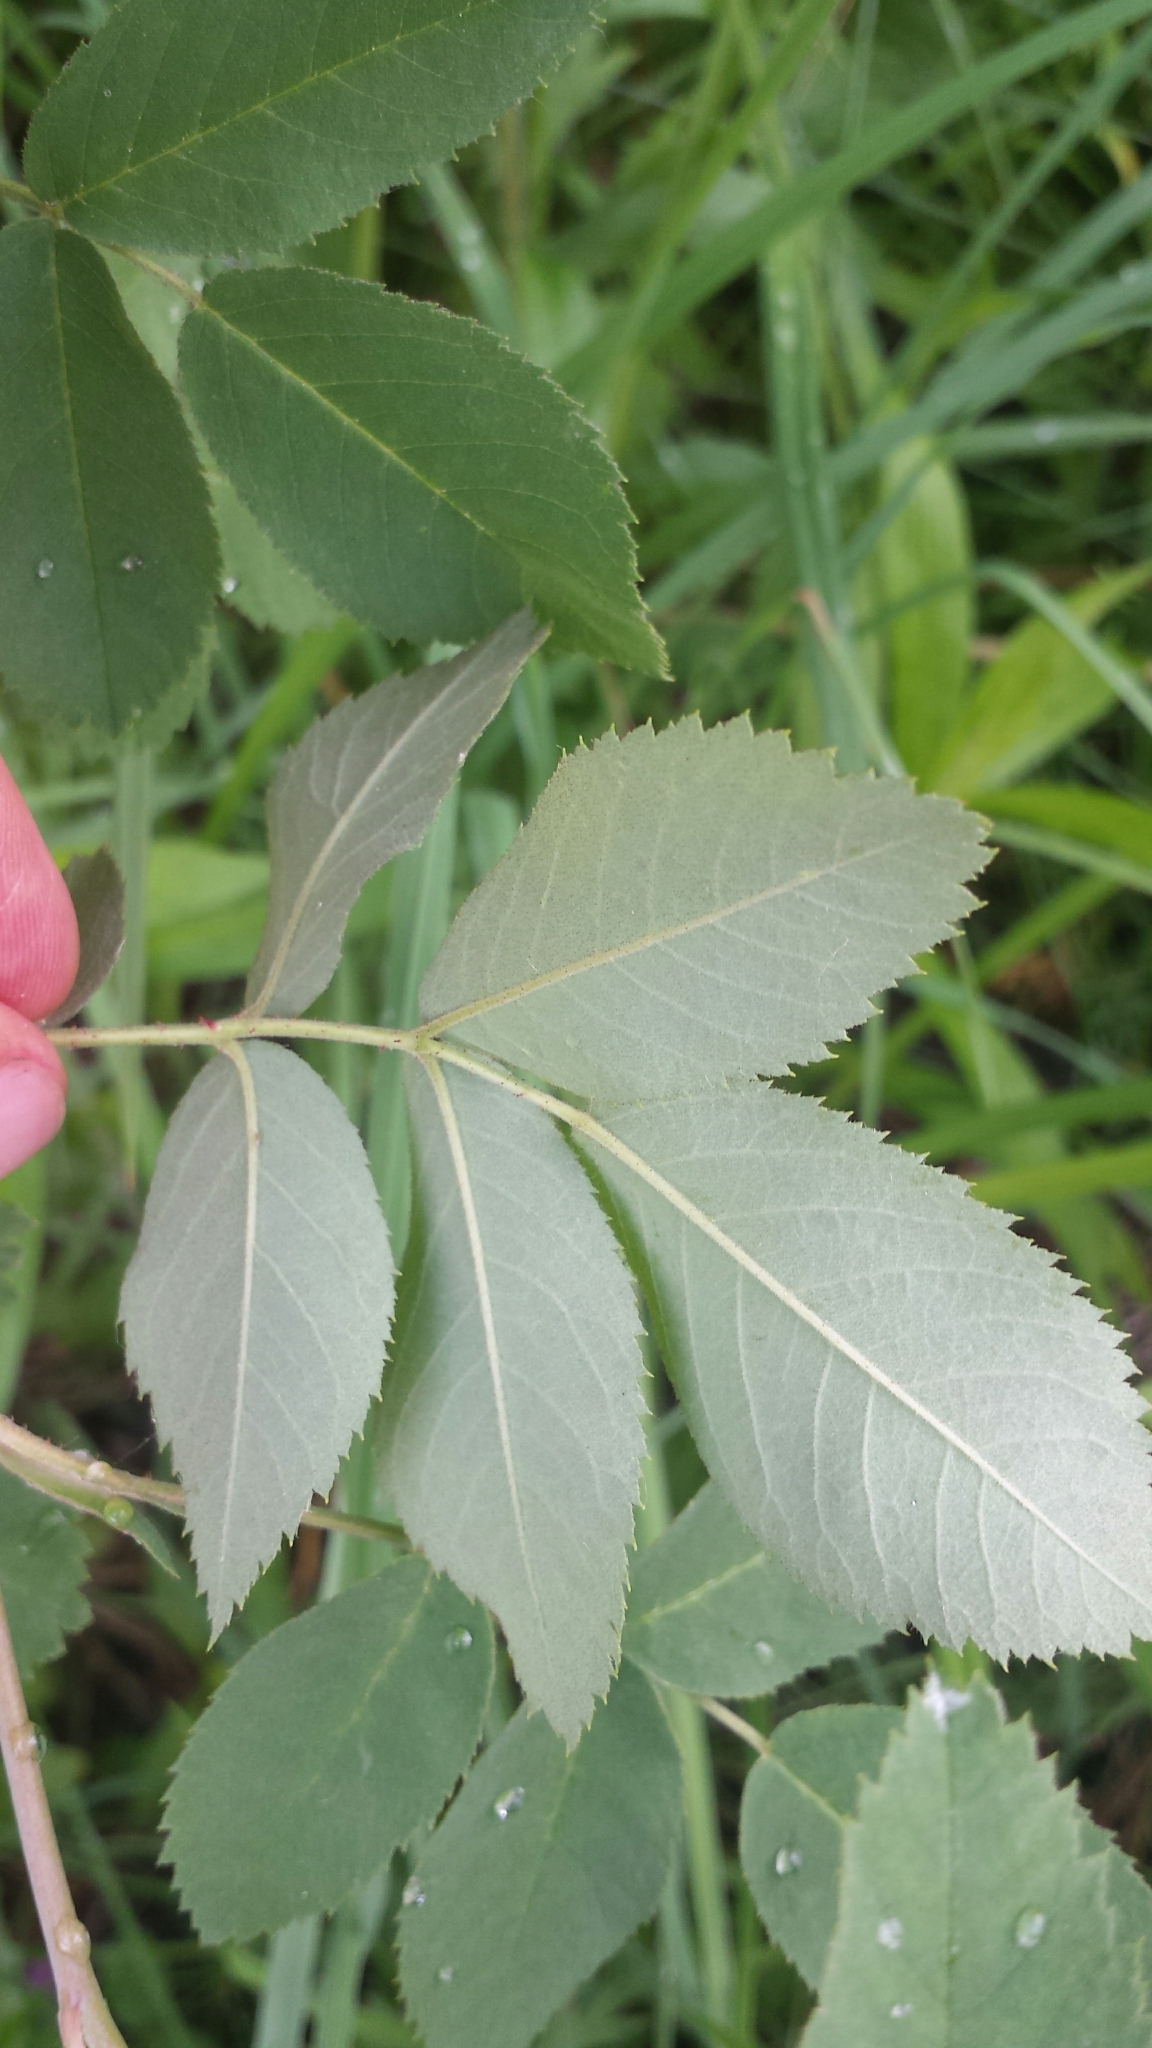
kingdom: Plantae
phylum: Tracheophyta
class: Magnoliopsida
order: Rosales
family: Rosaceae
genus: Rosa
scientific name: Rosa sherardii
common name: Sherard's downy rose
